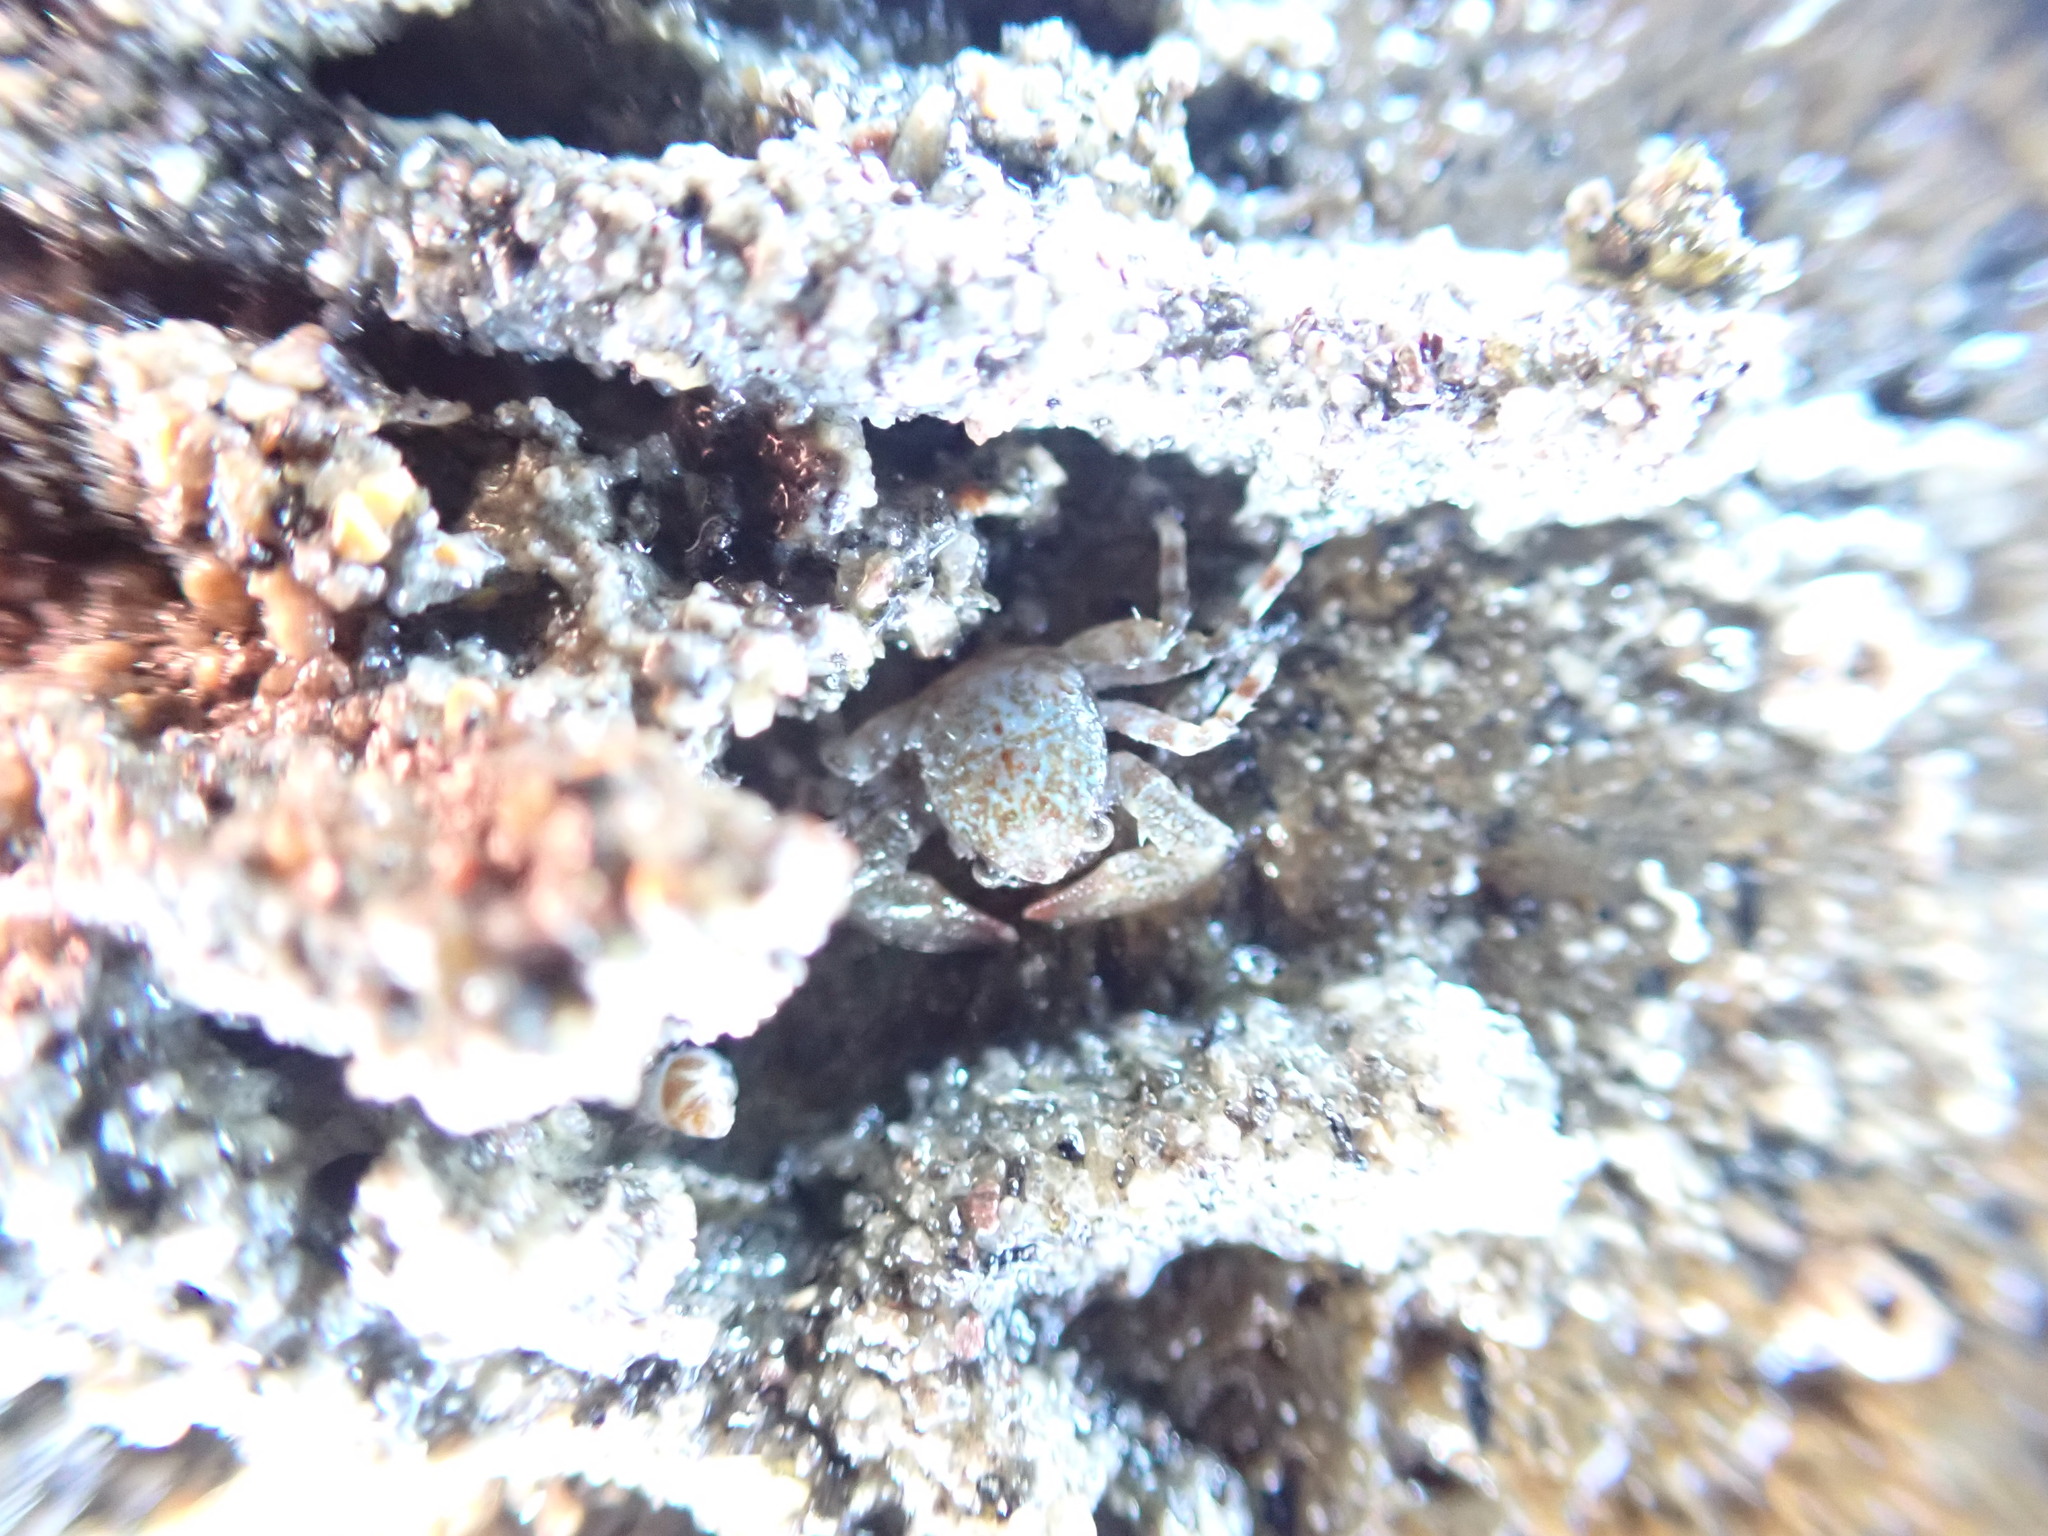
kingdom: Animalia
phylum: Arthropoda
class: Malacostraca
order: Decapoda
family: Porcellanidae
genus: Petrolisthes
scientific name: Petrolisthes elongatus
